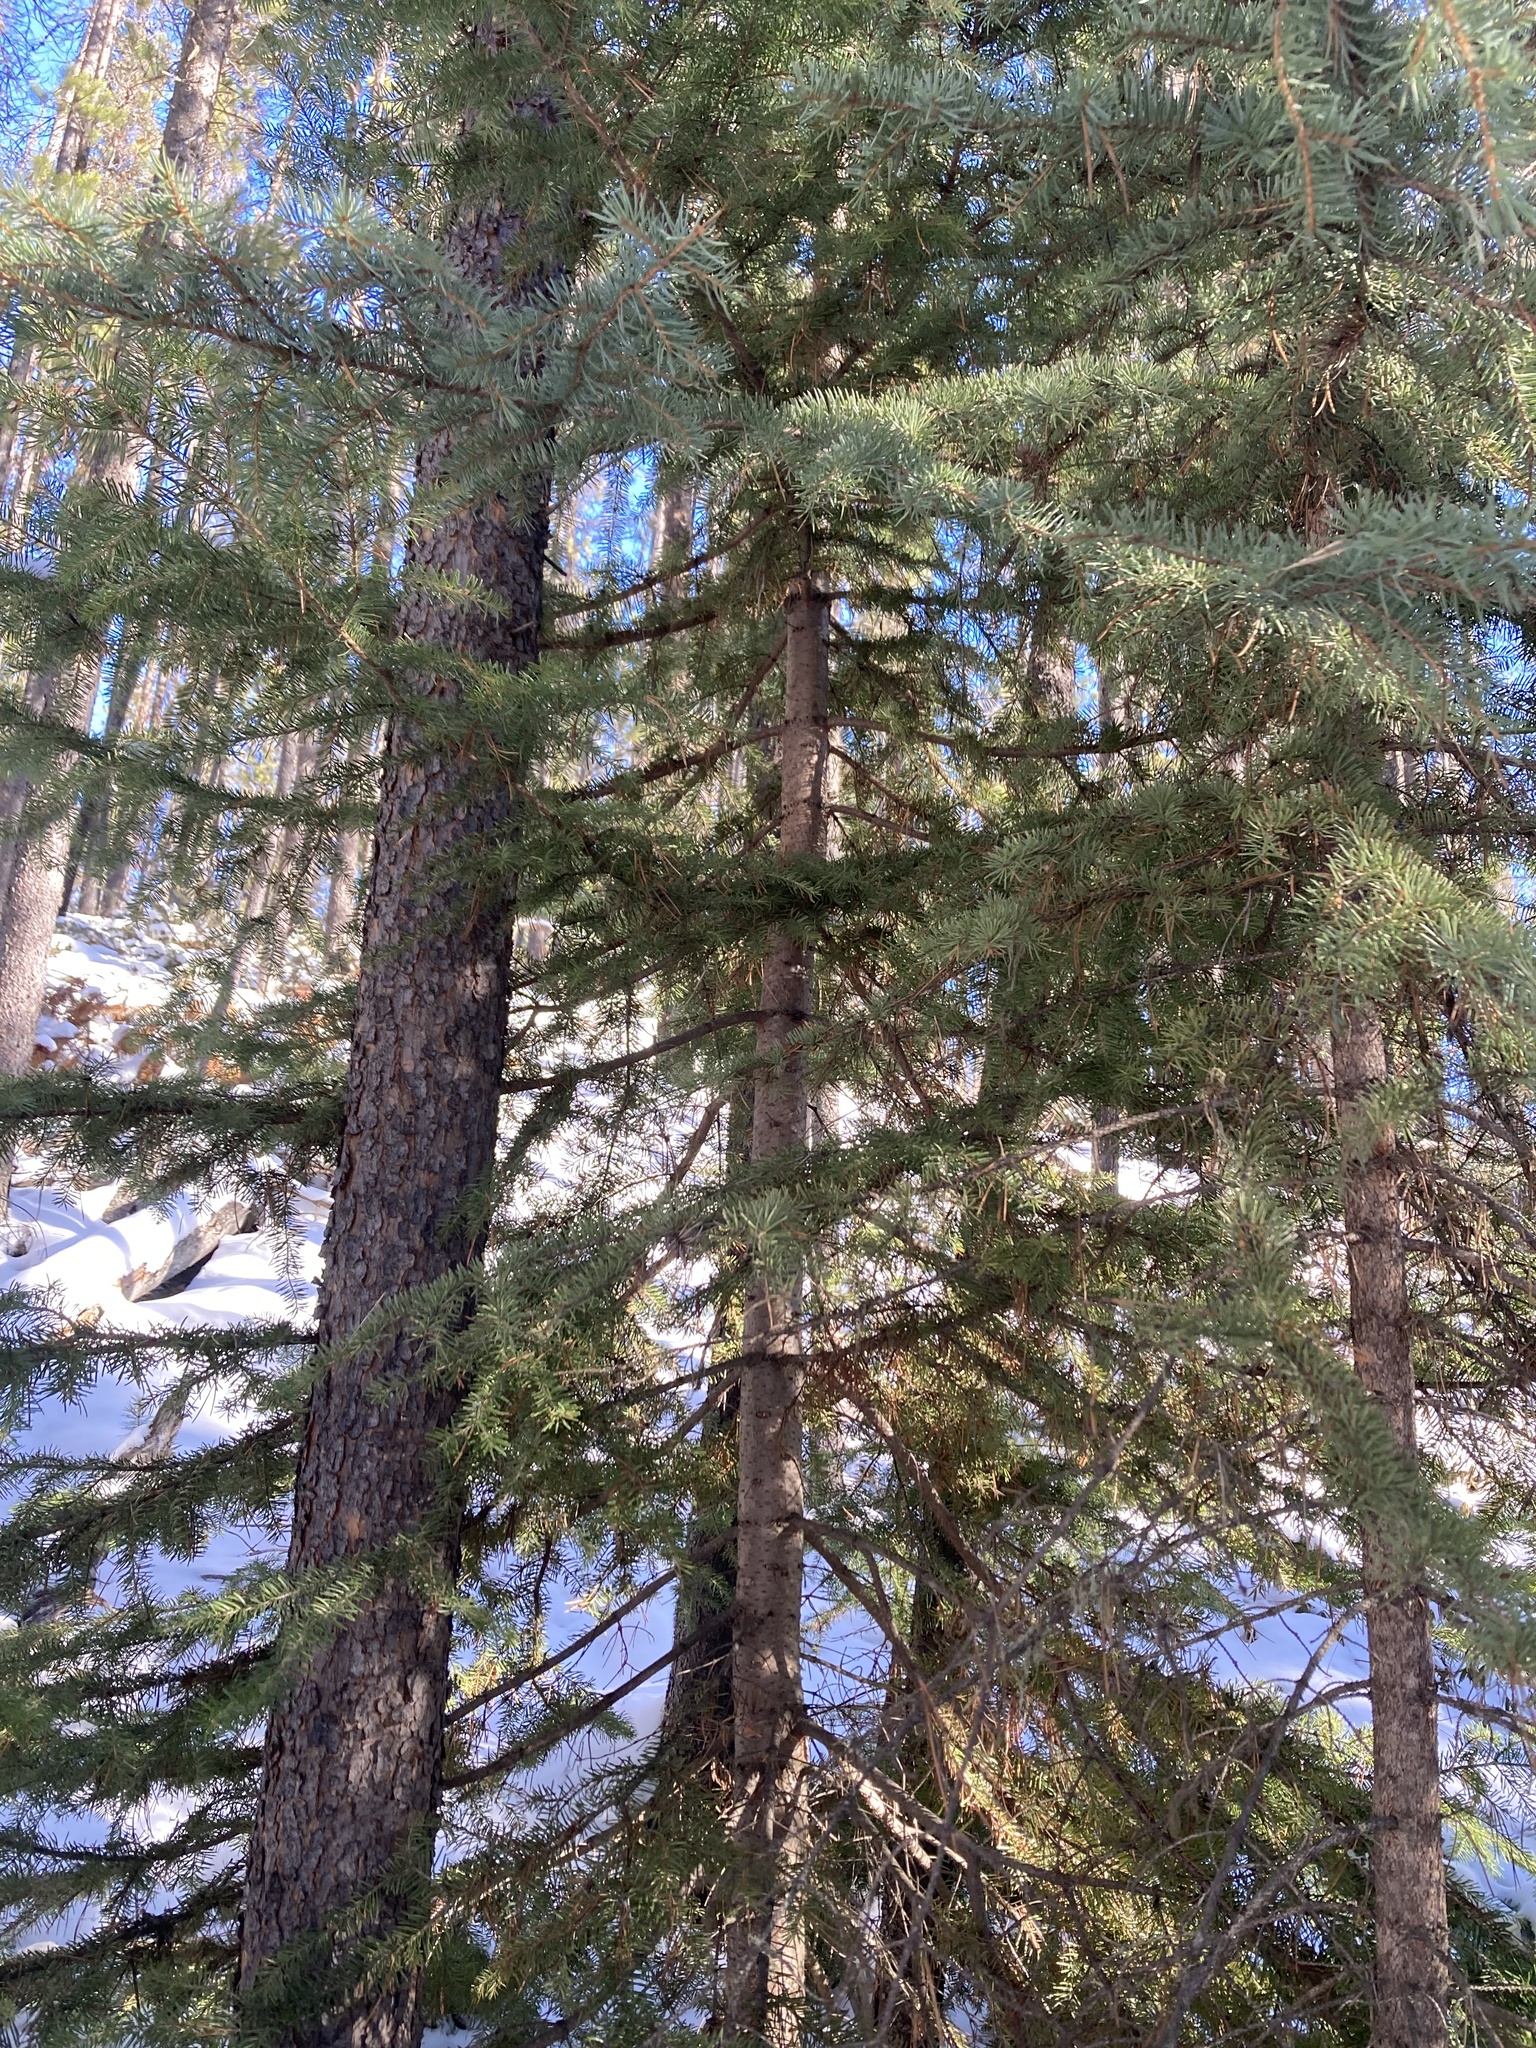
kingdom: Plantae
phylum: Tracheophyta
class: Pinopsida
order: Pinales
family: Pinaceae
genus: Abies
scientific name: Abies lasiocarpa
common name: Subalpine fir
